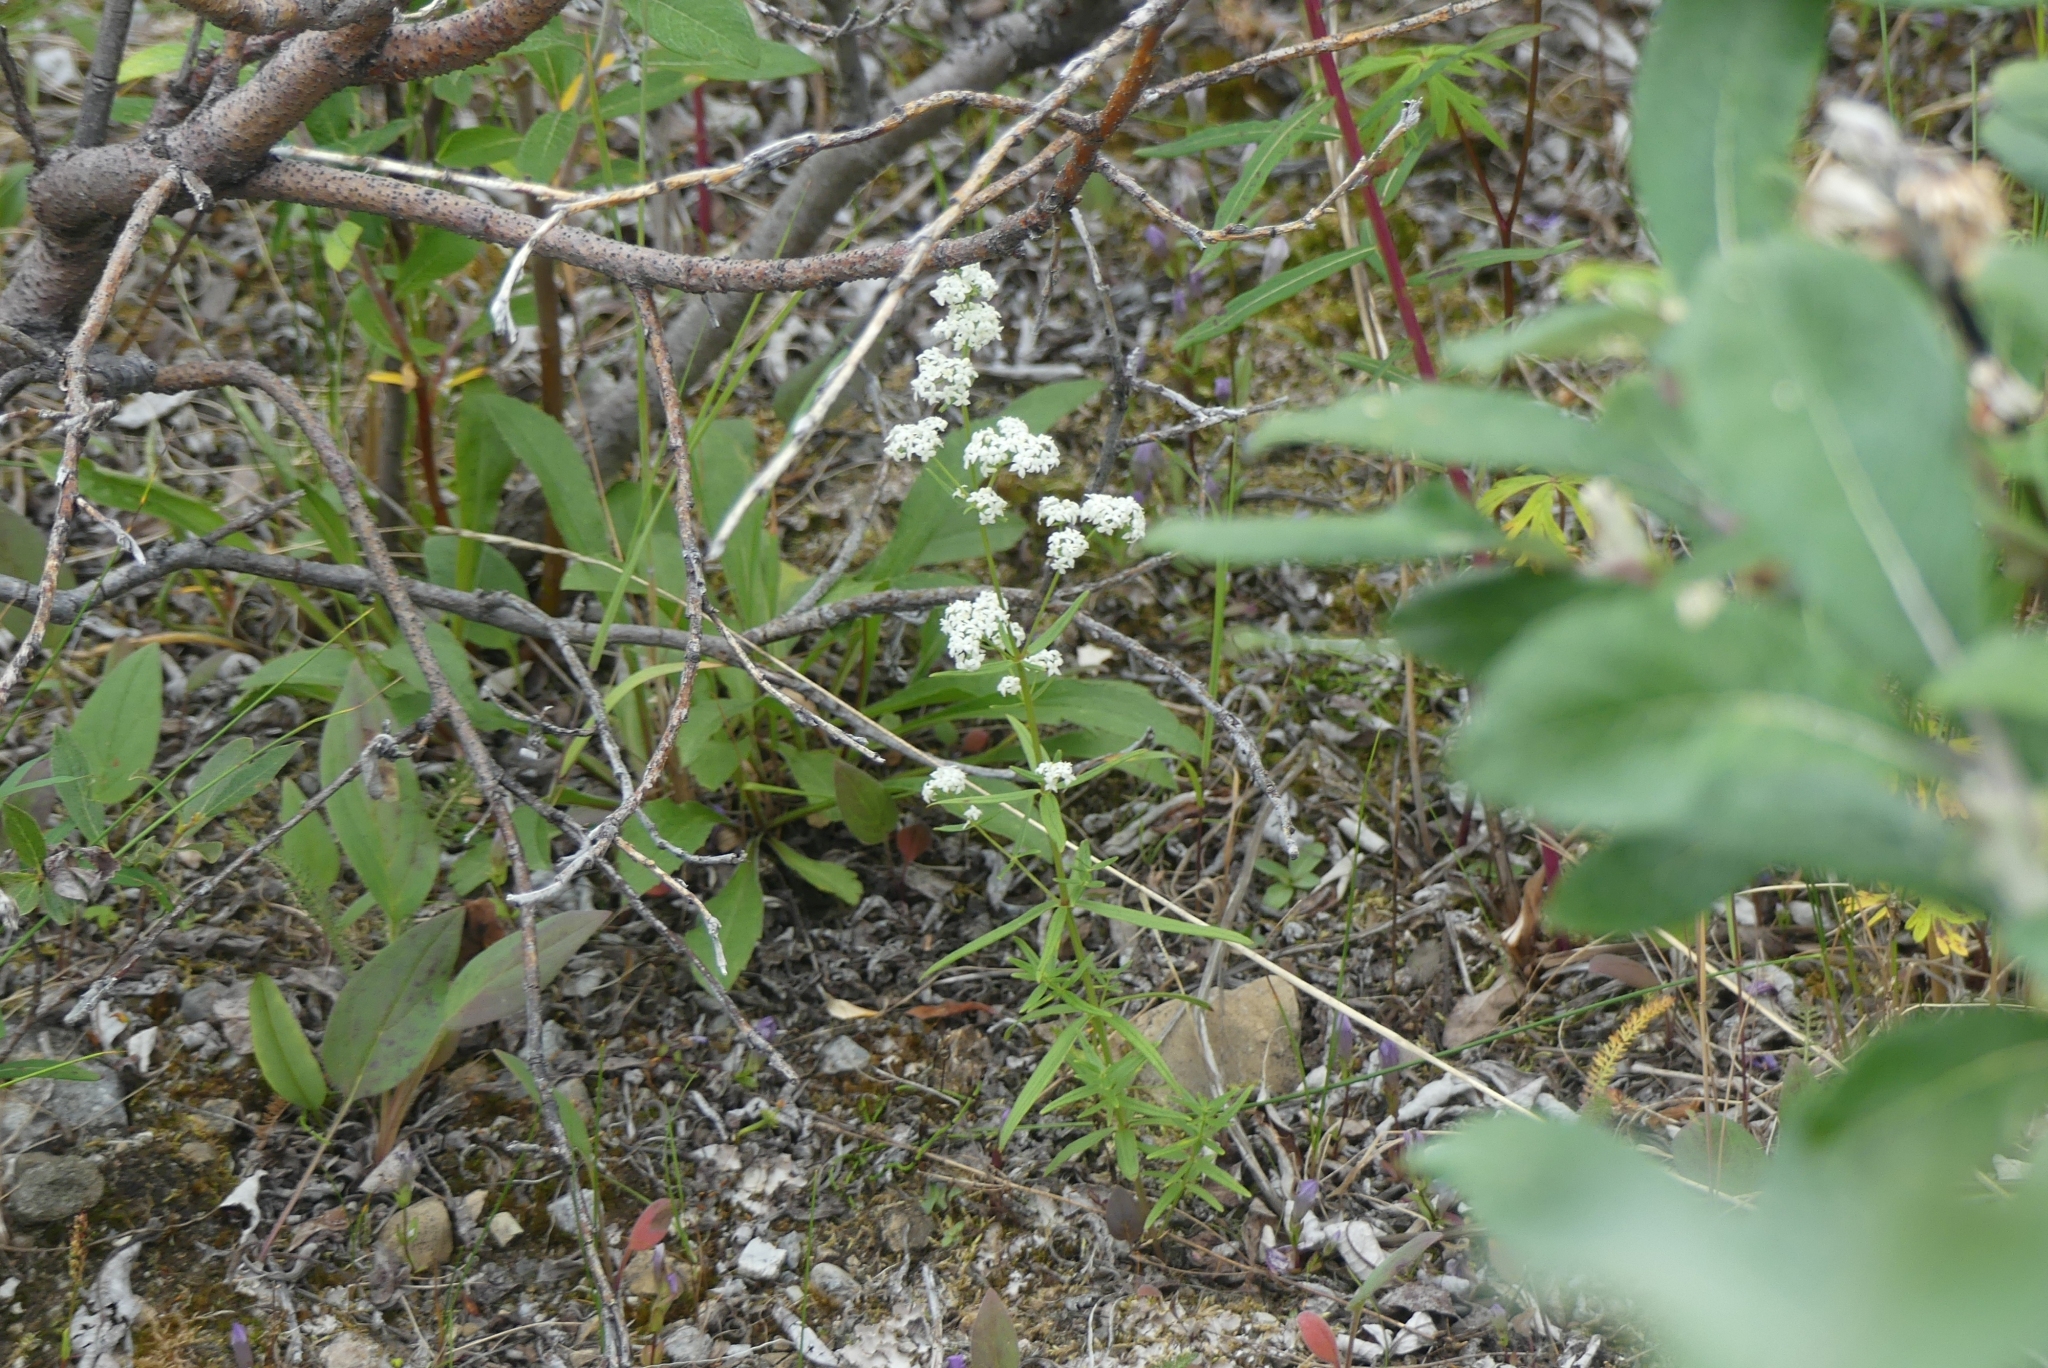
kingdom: Plantae
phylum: Tracheophyta
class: Magnoliopsida
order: Gentianales
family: Rubiaceae
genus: Galium
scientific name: Galium boreale
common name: Northern bedstraw
